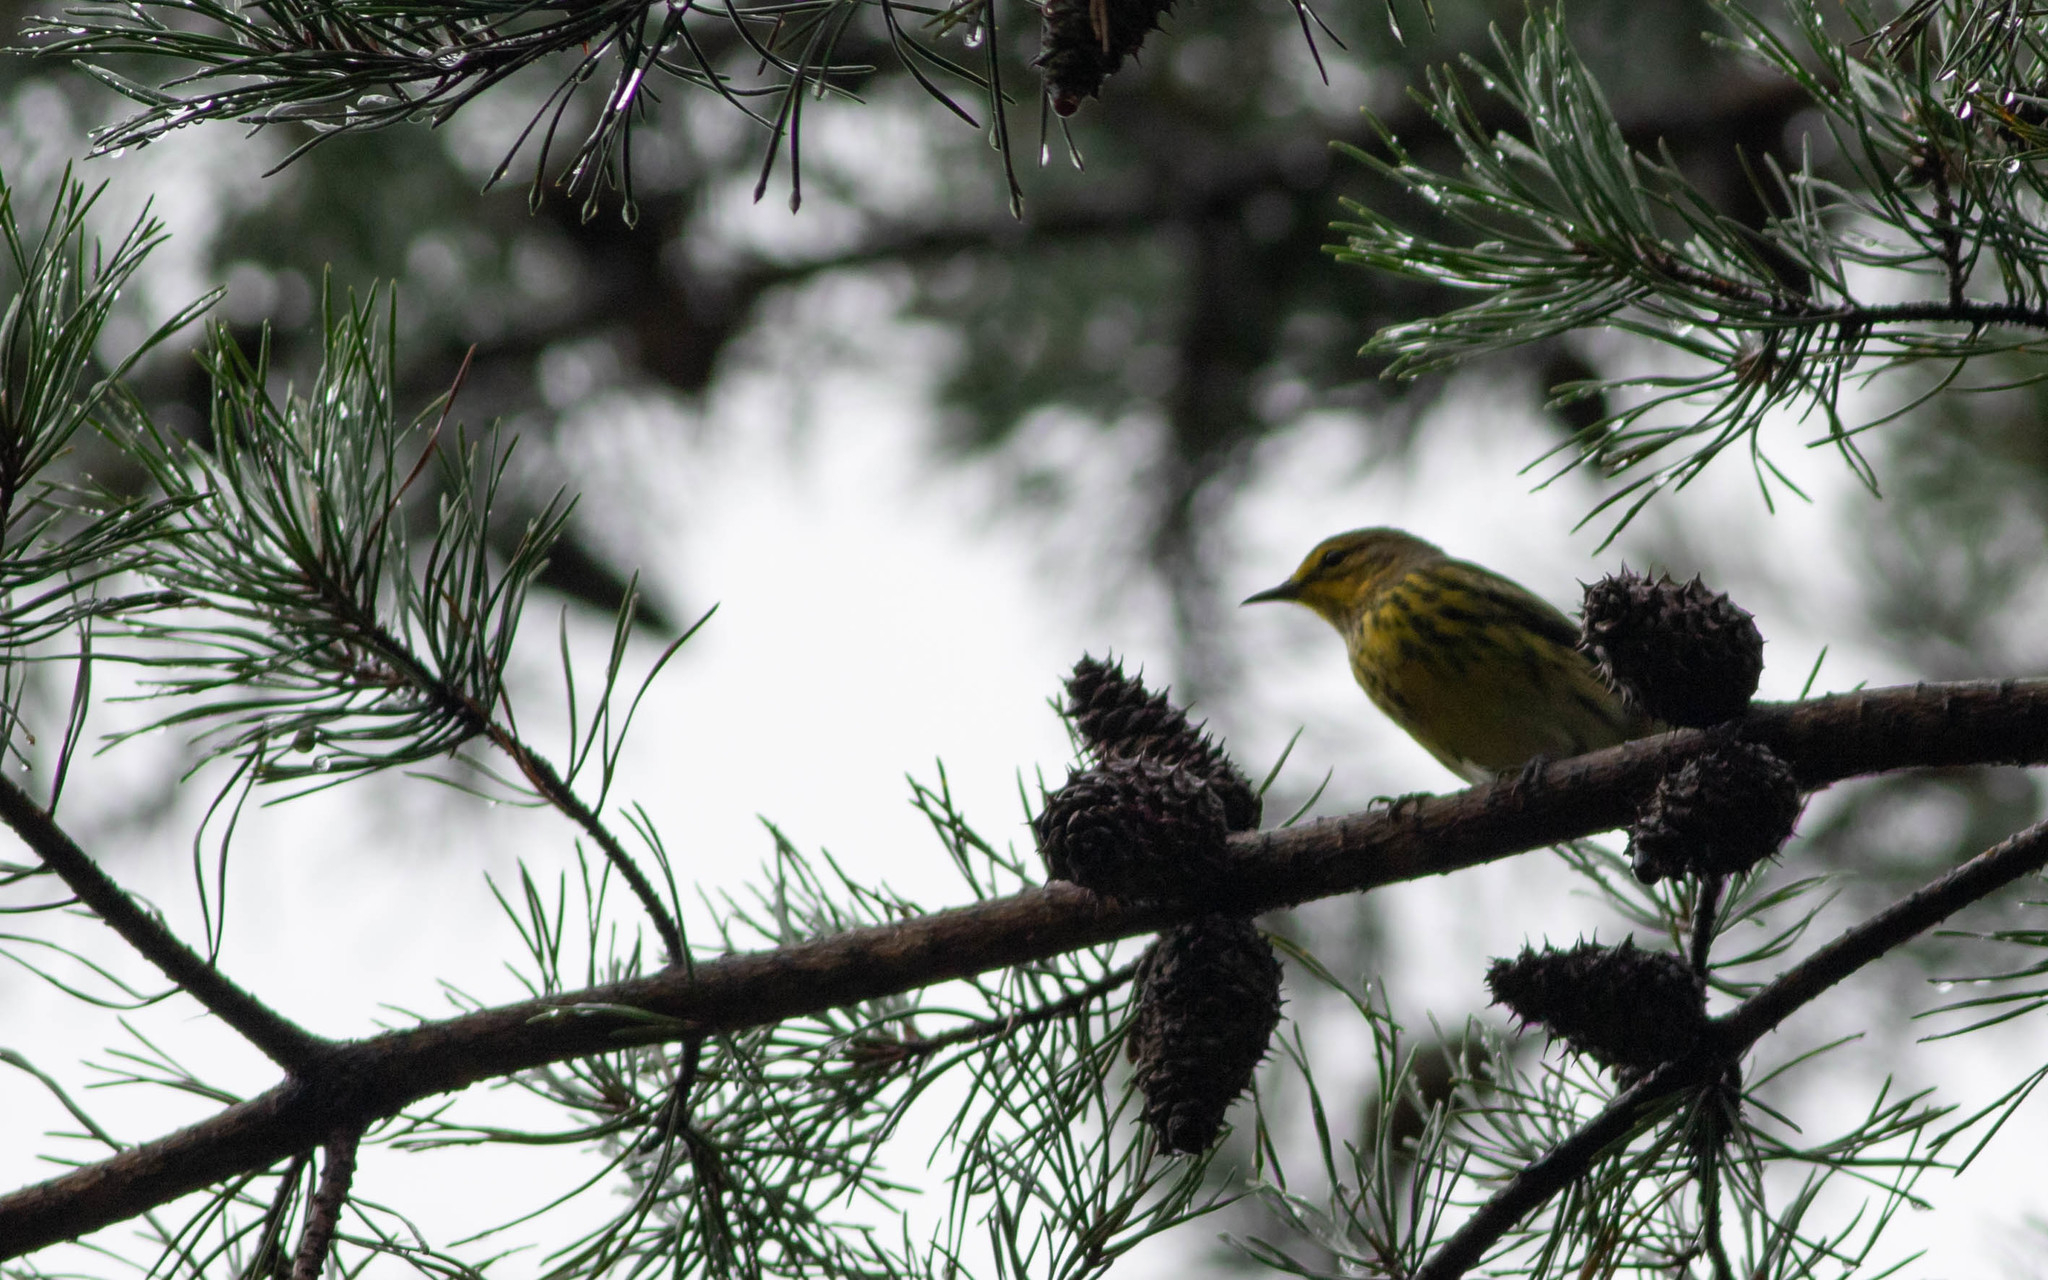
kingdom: Animalia
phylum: Chordata
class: Aves
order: Passeriformes
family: Parulidae
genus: Setophaga
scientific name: Setophaga tigrina
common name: Cape may warbler
